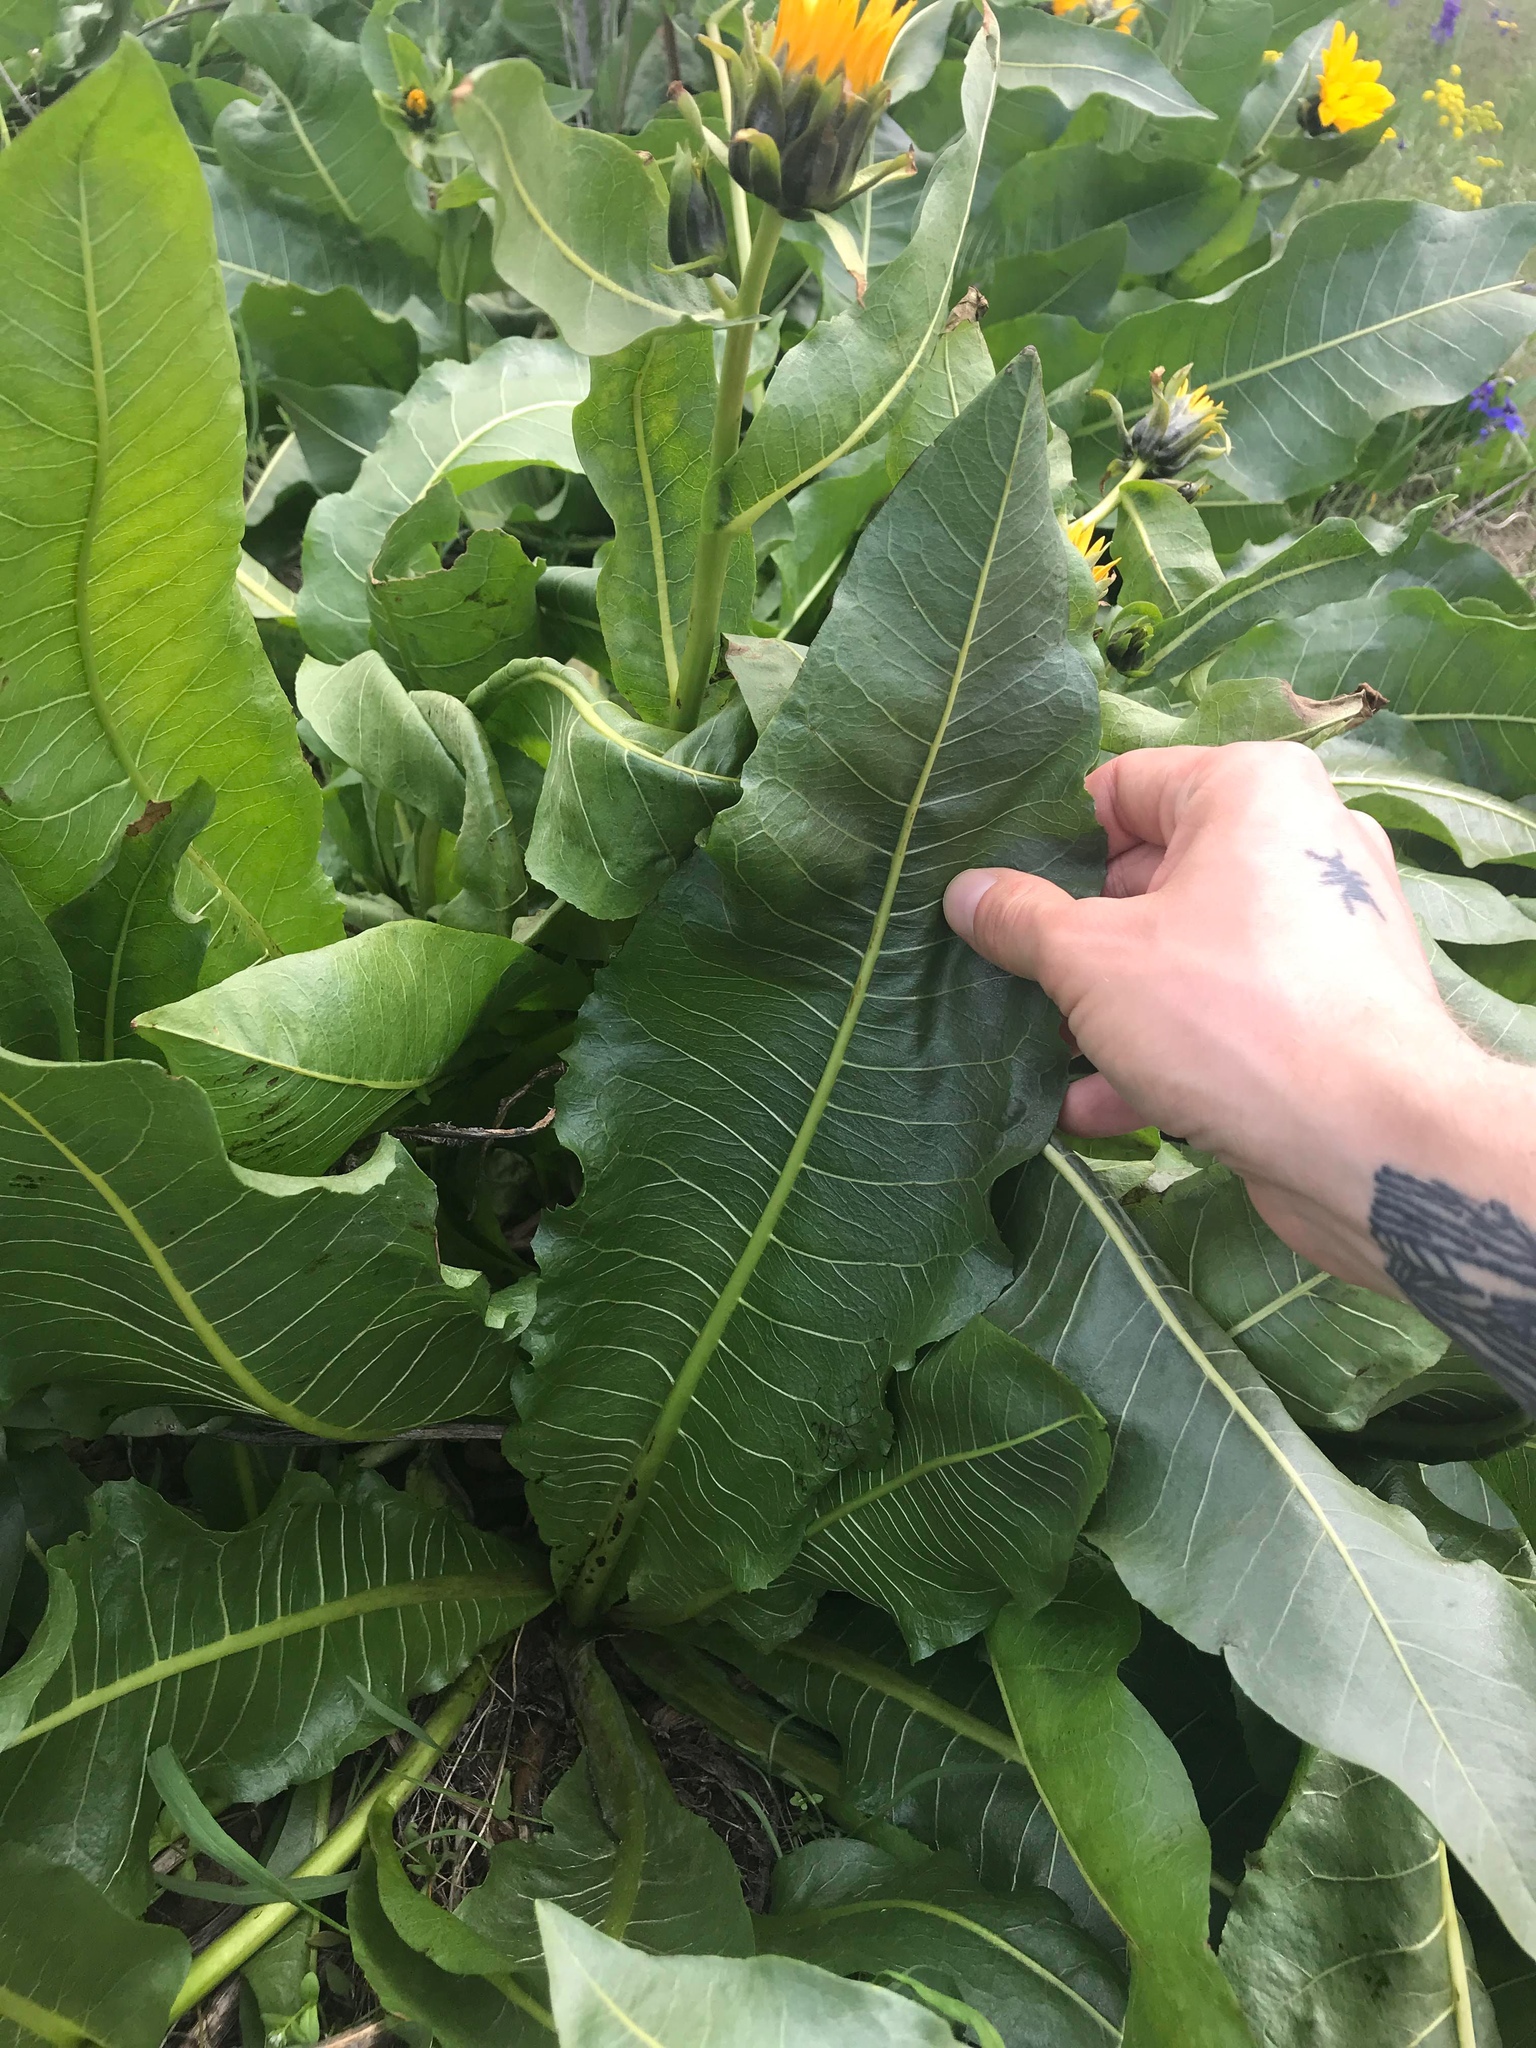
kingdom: Plantae
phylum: Tracheophyta
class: Magnoliopsida
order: Asterales
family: Asteraceae
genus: Wyethia
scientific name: Wyethia amplexicaulis
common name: Northern mule's-ears
